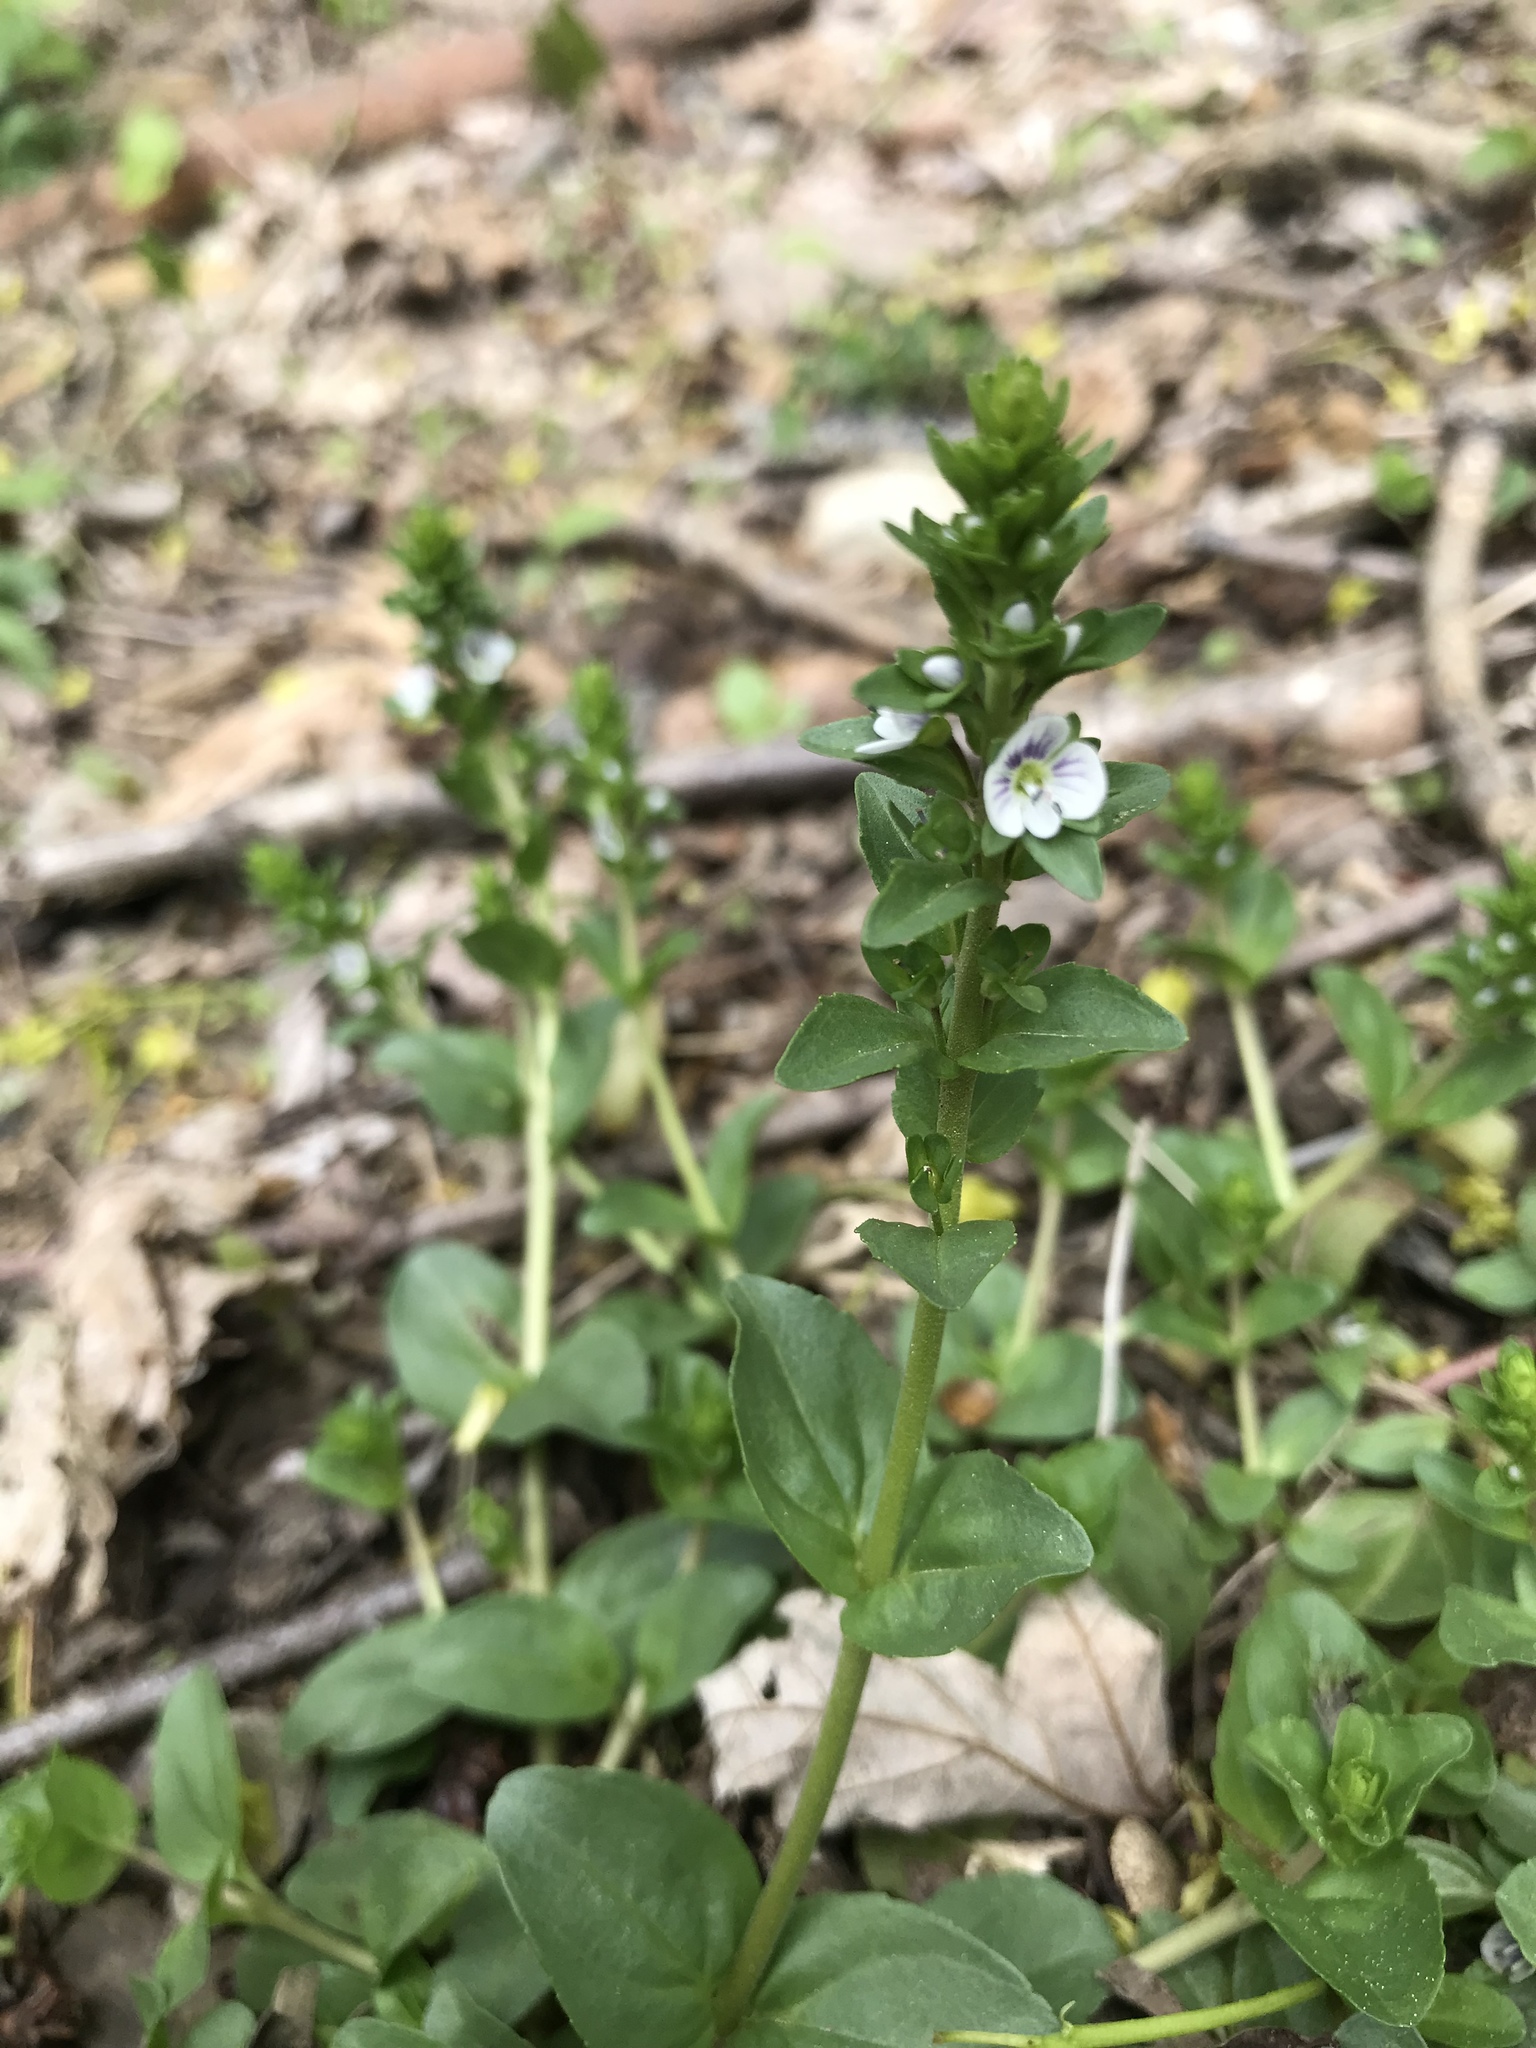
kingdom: Plantae
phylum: Tracheophyta
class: Magnoliopsida
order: Lamiales
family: Plantaginaceae
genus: Veronica
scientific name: Veronica serpyllifolia
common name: Thyme-leaved speedwell
